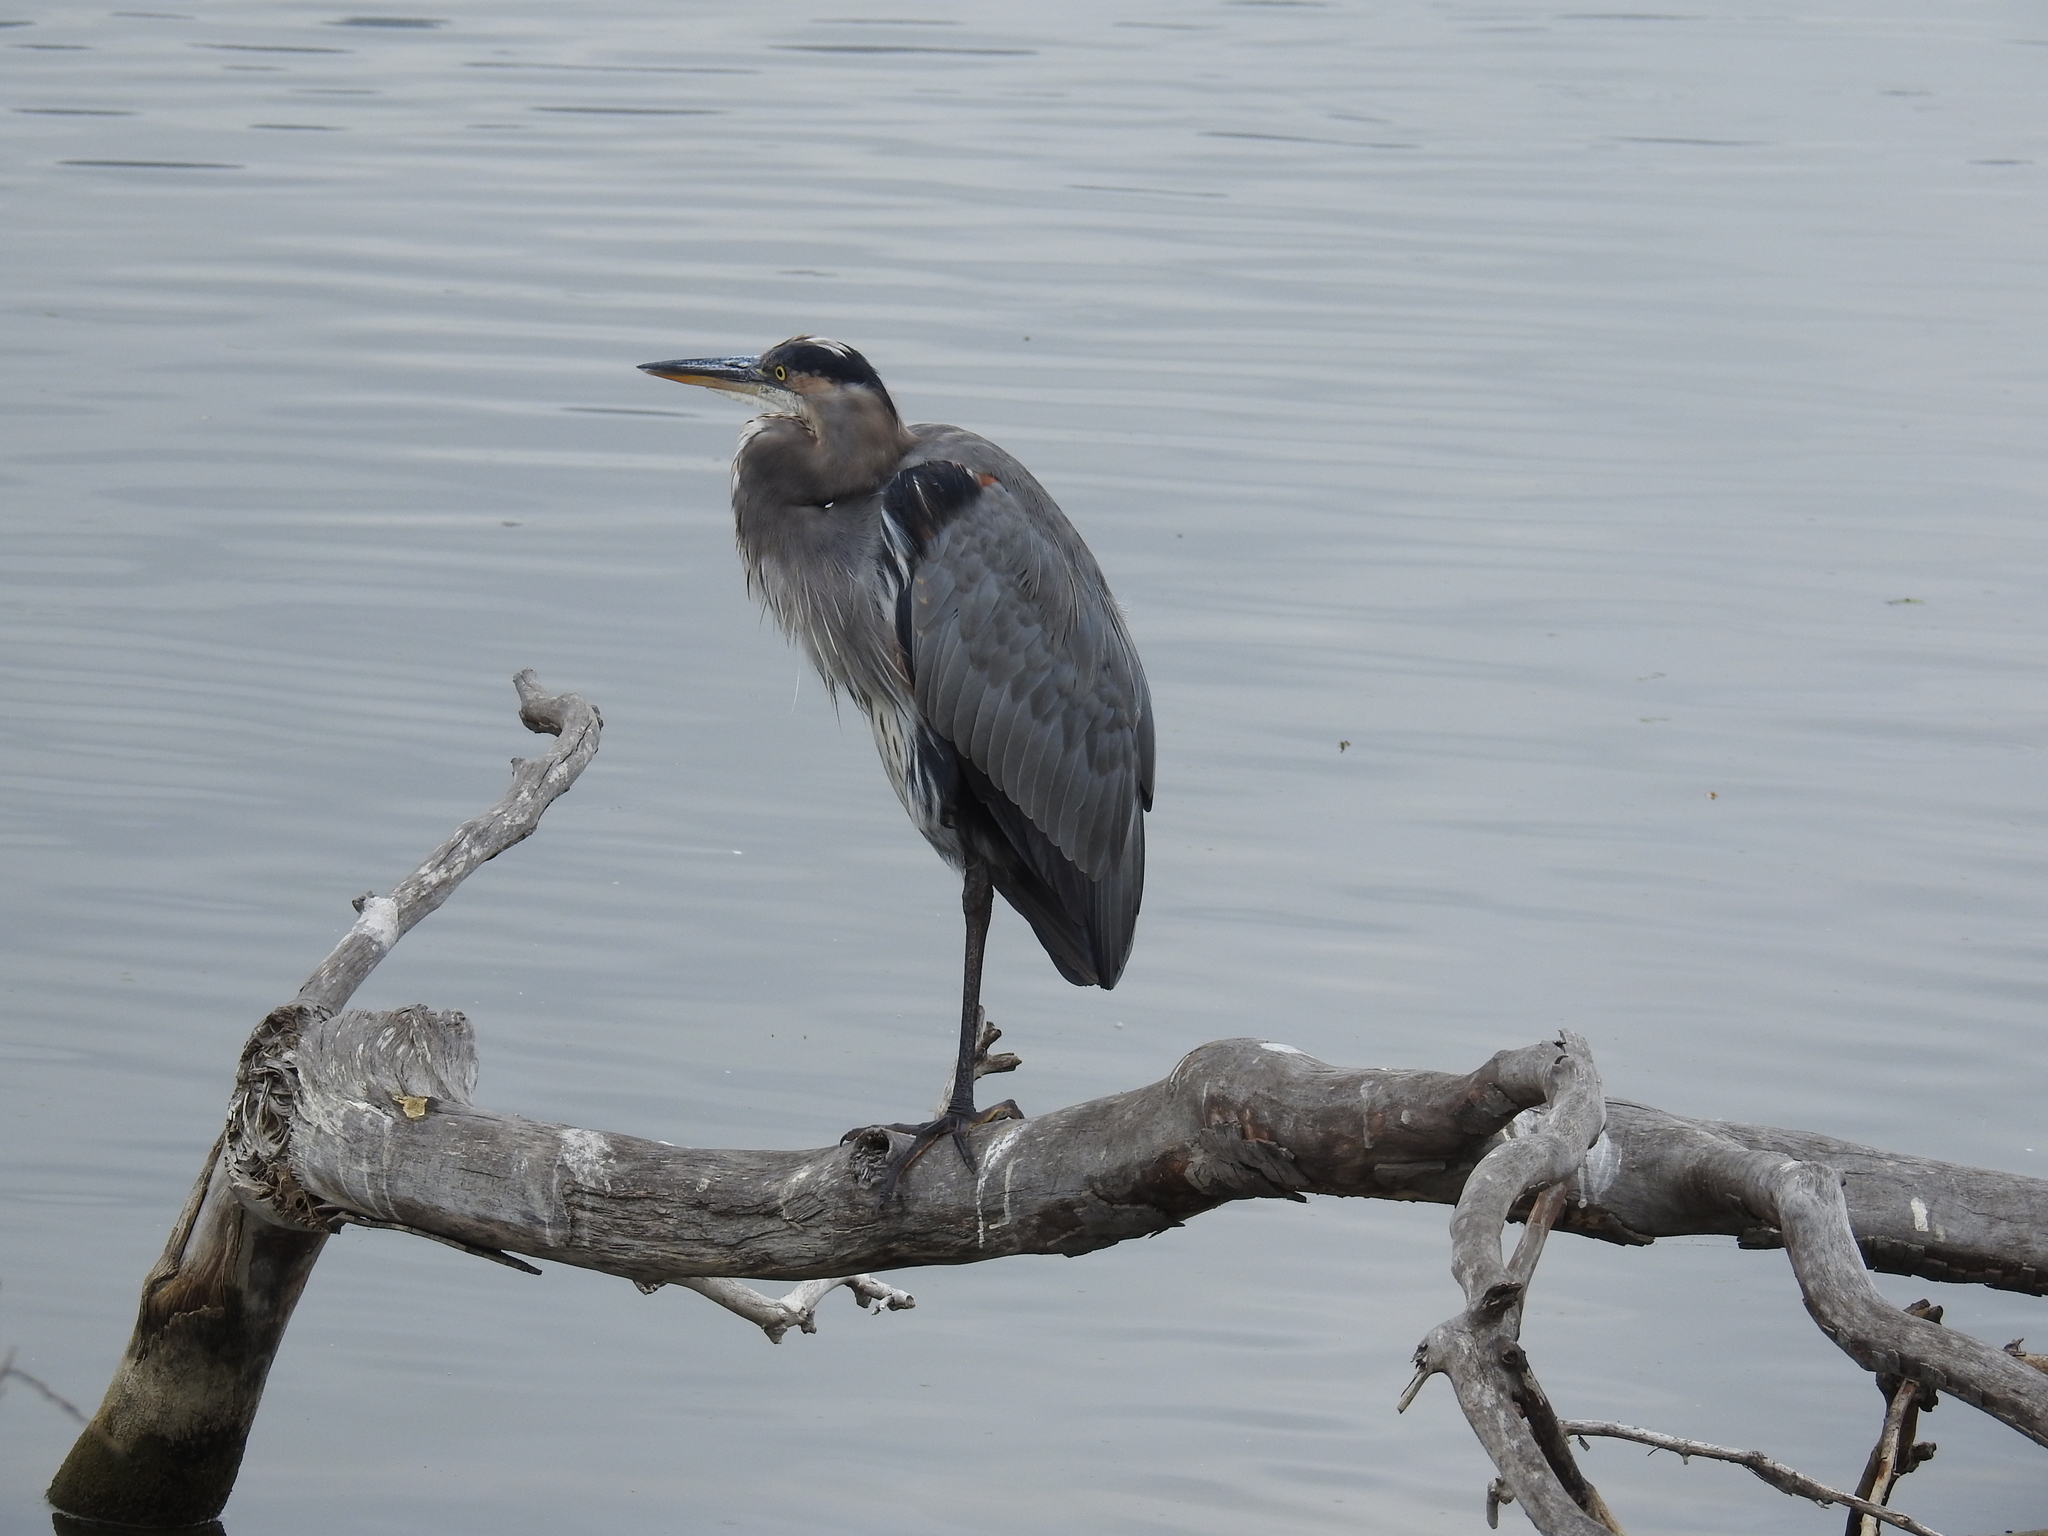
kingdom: Animalia
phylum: Chordata
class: Aves
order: Pelecaniformes
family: Ardeidae
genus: Ardea
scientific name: Ardea herodias
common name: Great blue heron
